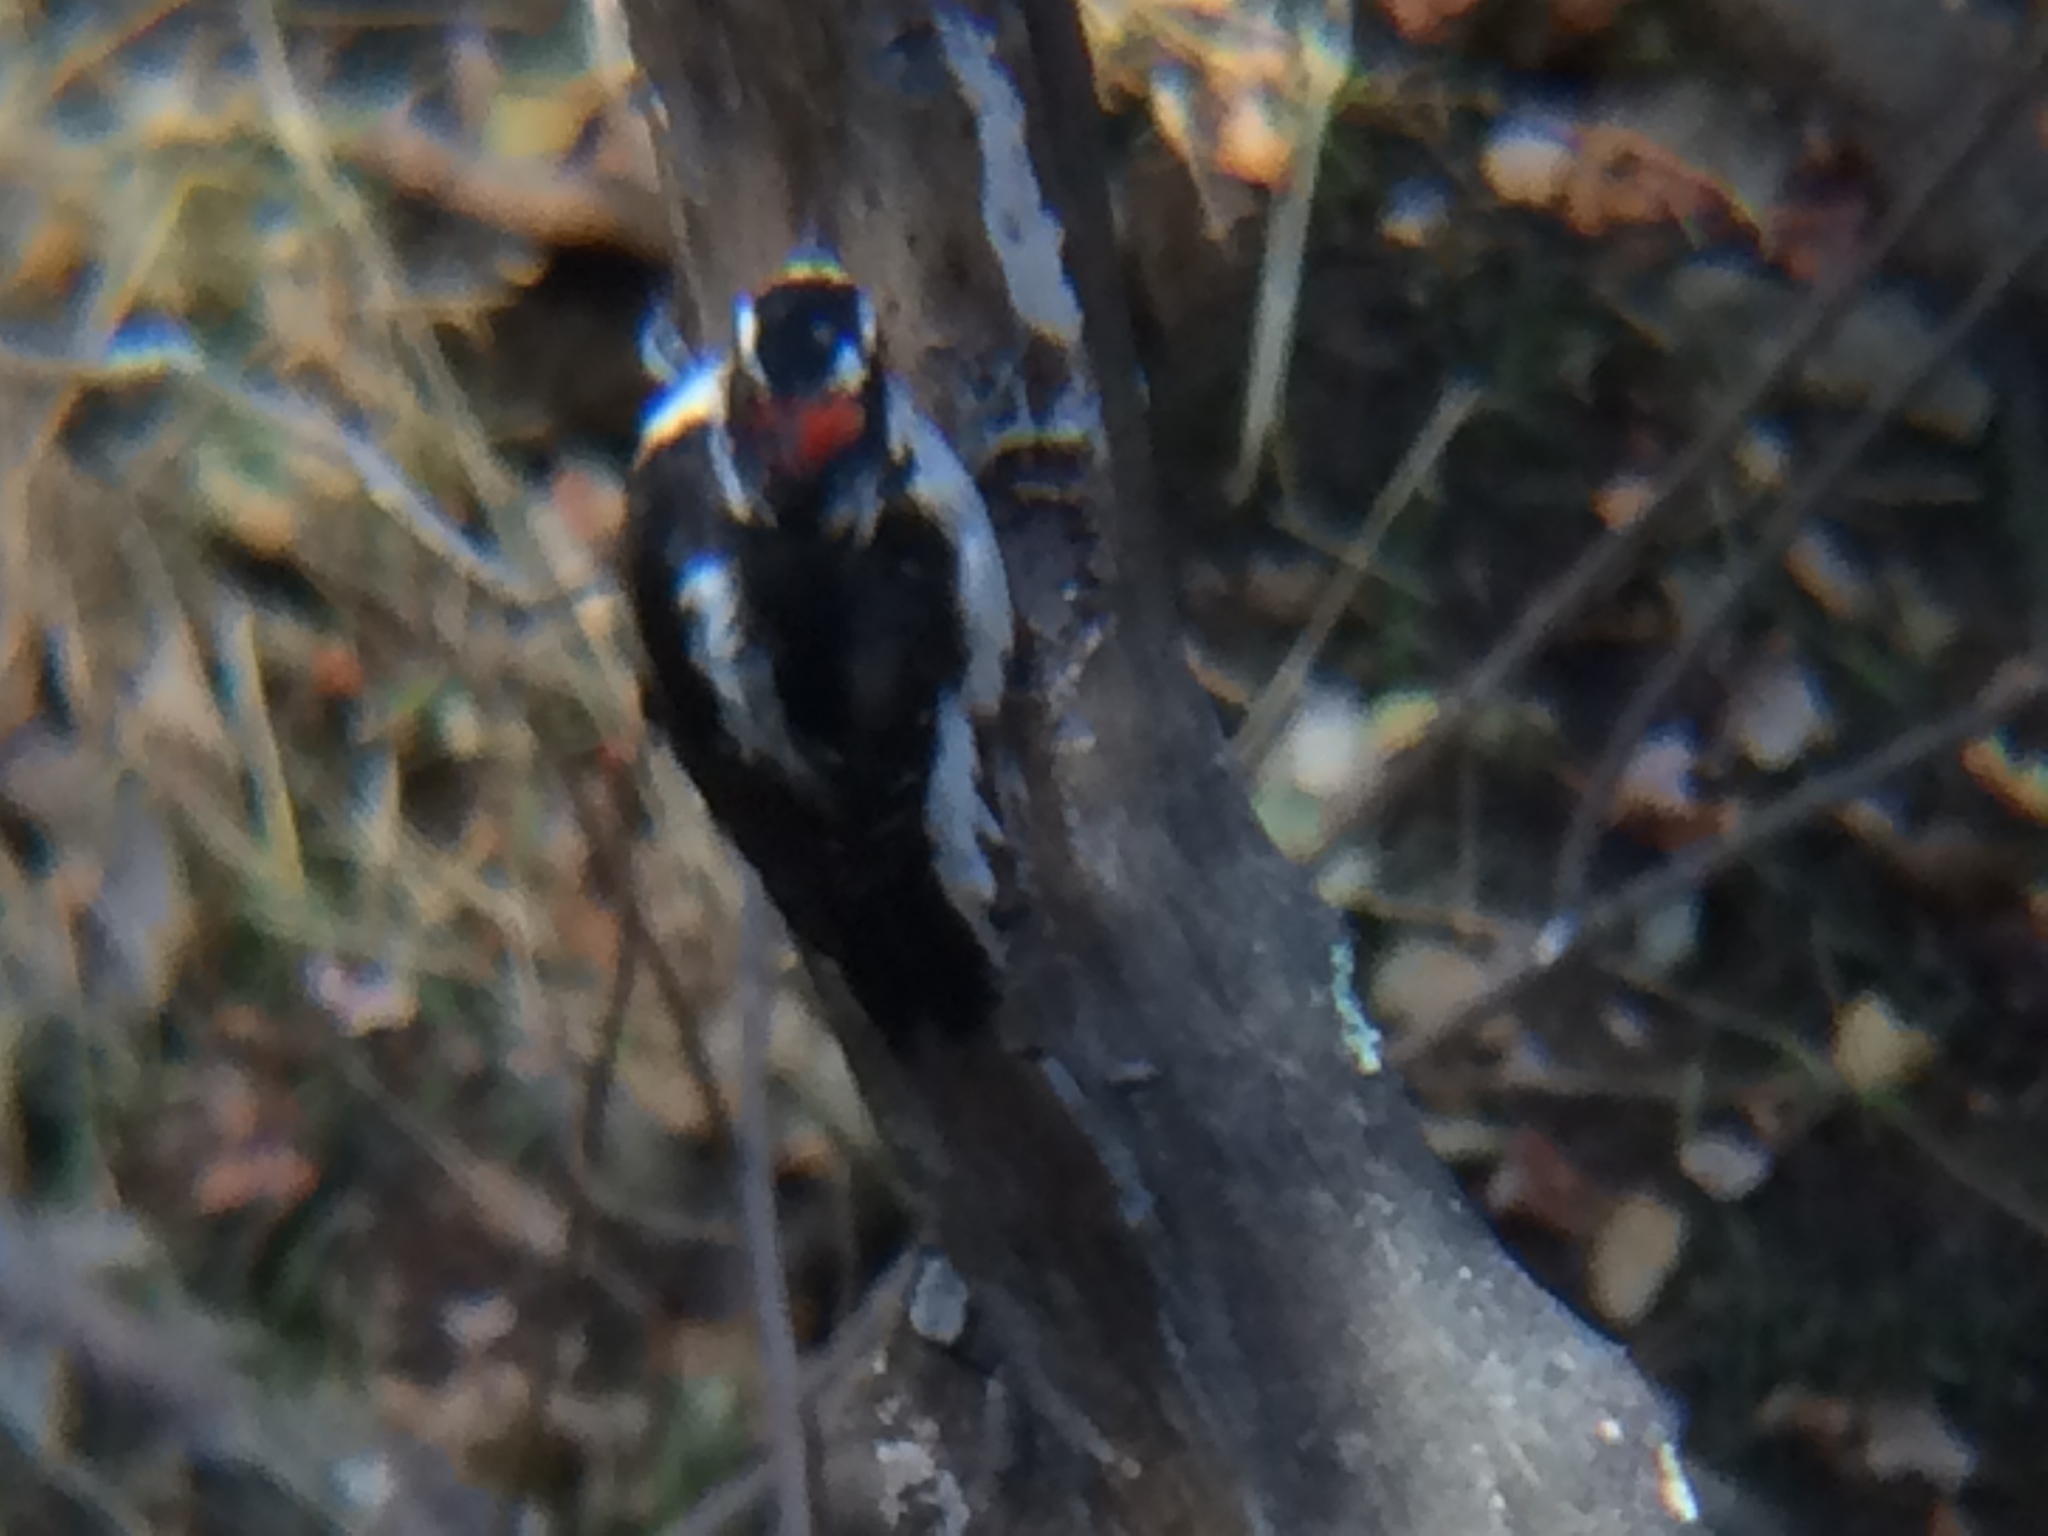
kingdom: Animalia
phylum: Chordata
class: Aves
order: Piciformes
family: Picidae
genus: Leuconotopicus
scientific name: Leuconotopicus villosus
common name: Hairy woodpecker
